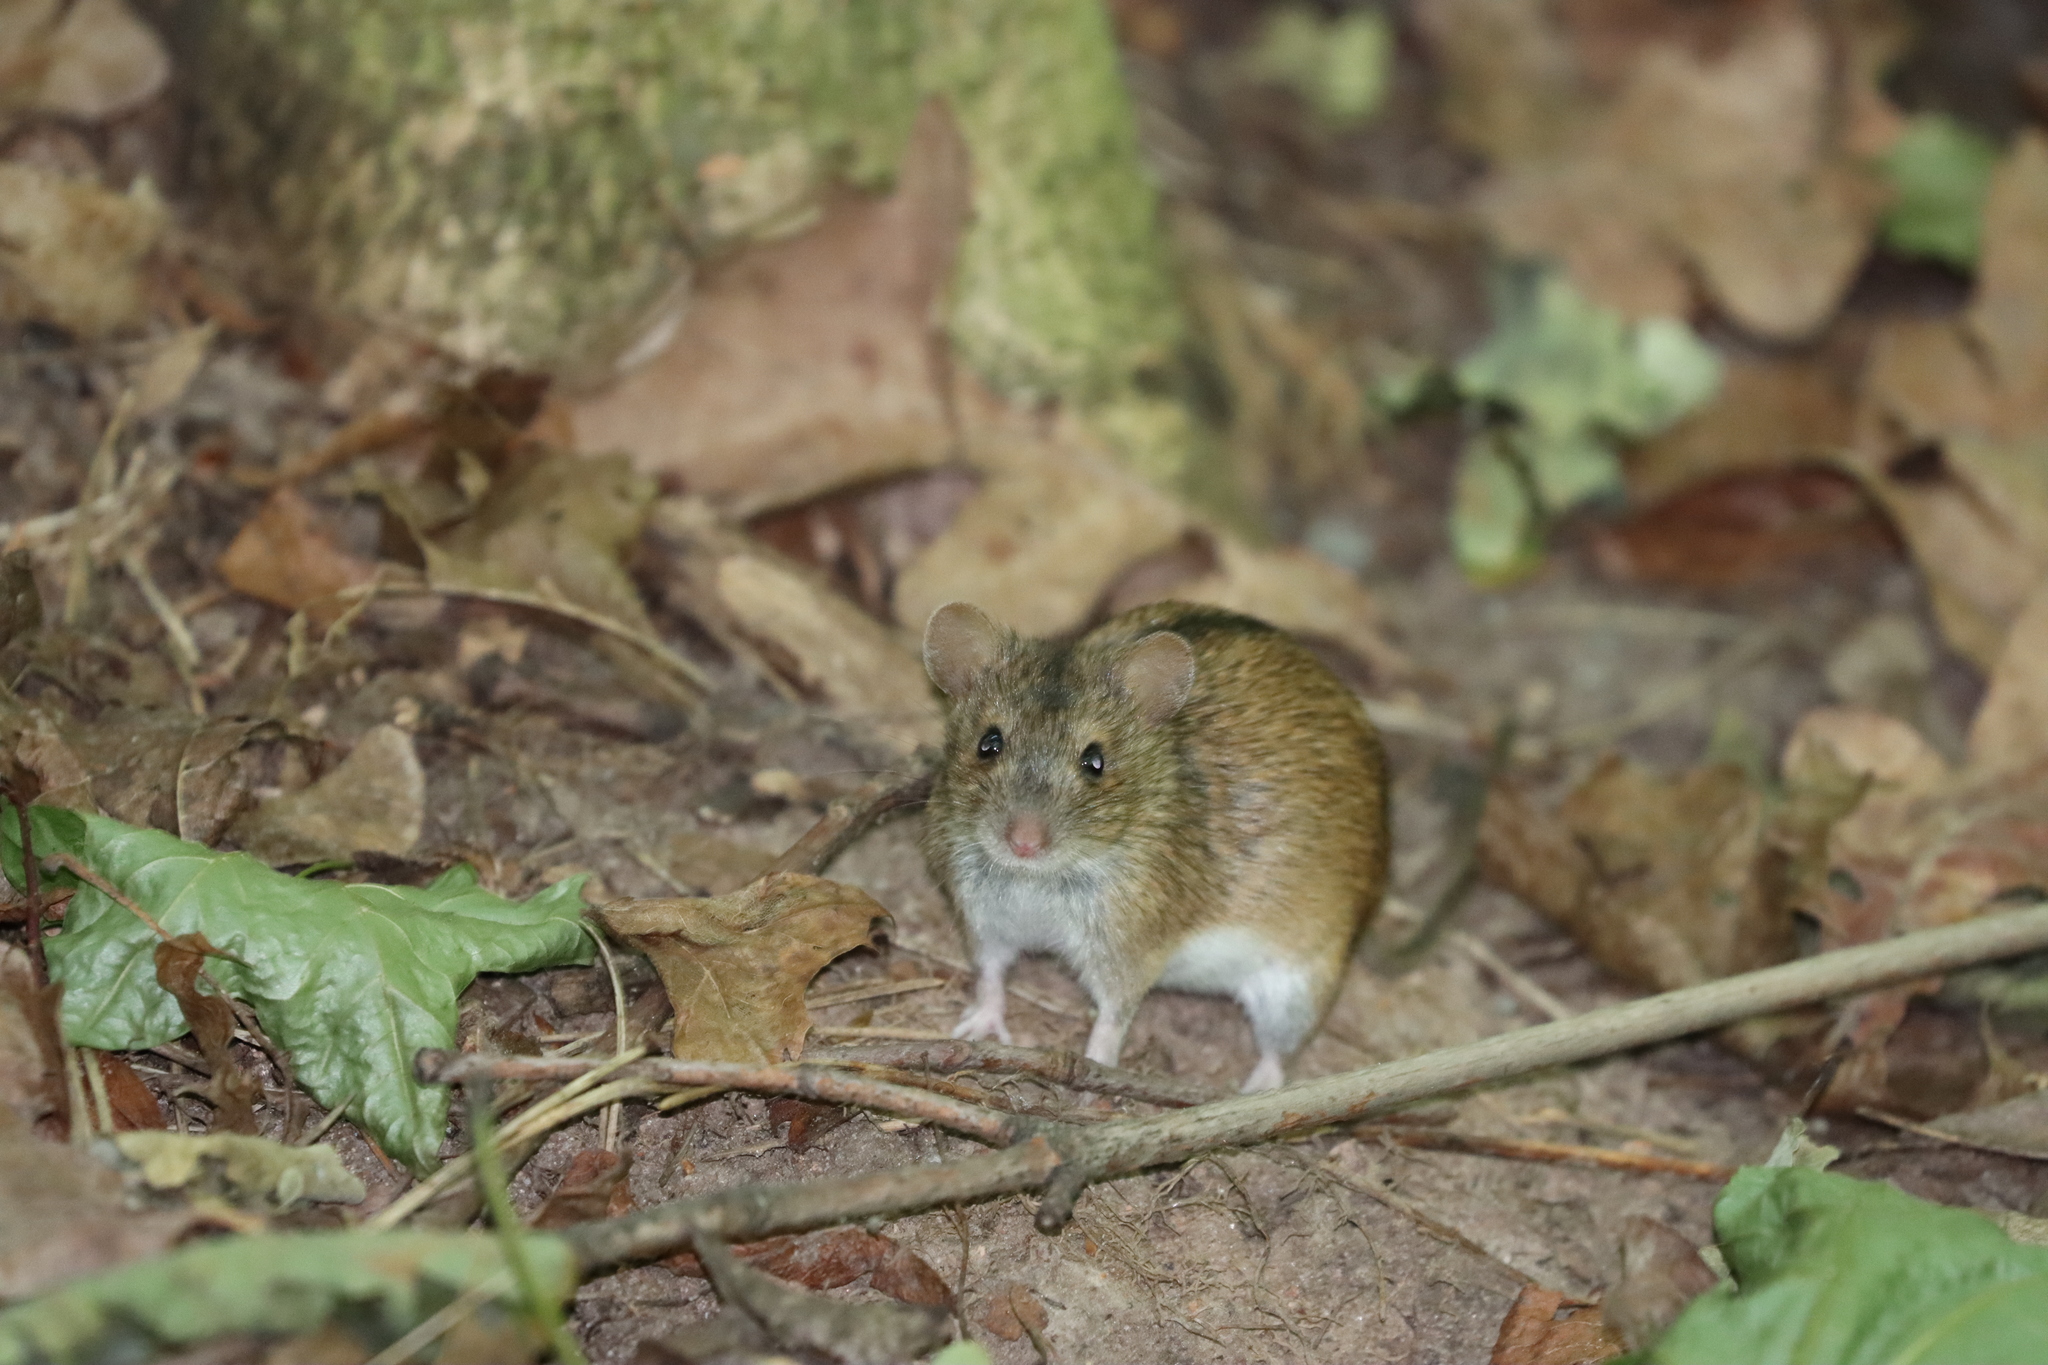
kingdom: Animalia
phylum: Chordata
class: Mammalia
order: Rodentia
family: Muridae
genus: Apodemus
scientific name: Apodemus agrarius
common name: Striped field mouse
